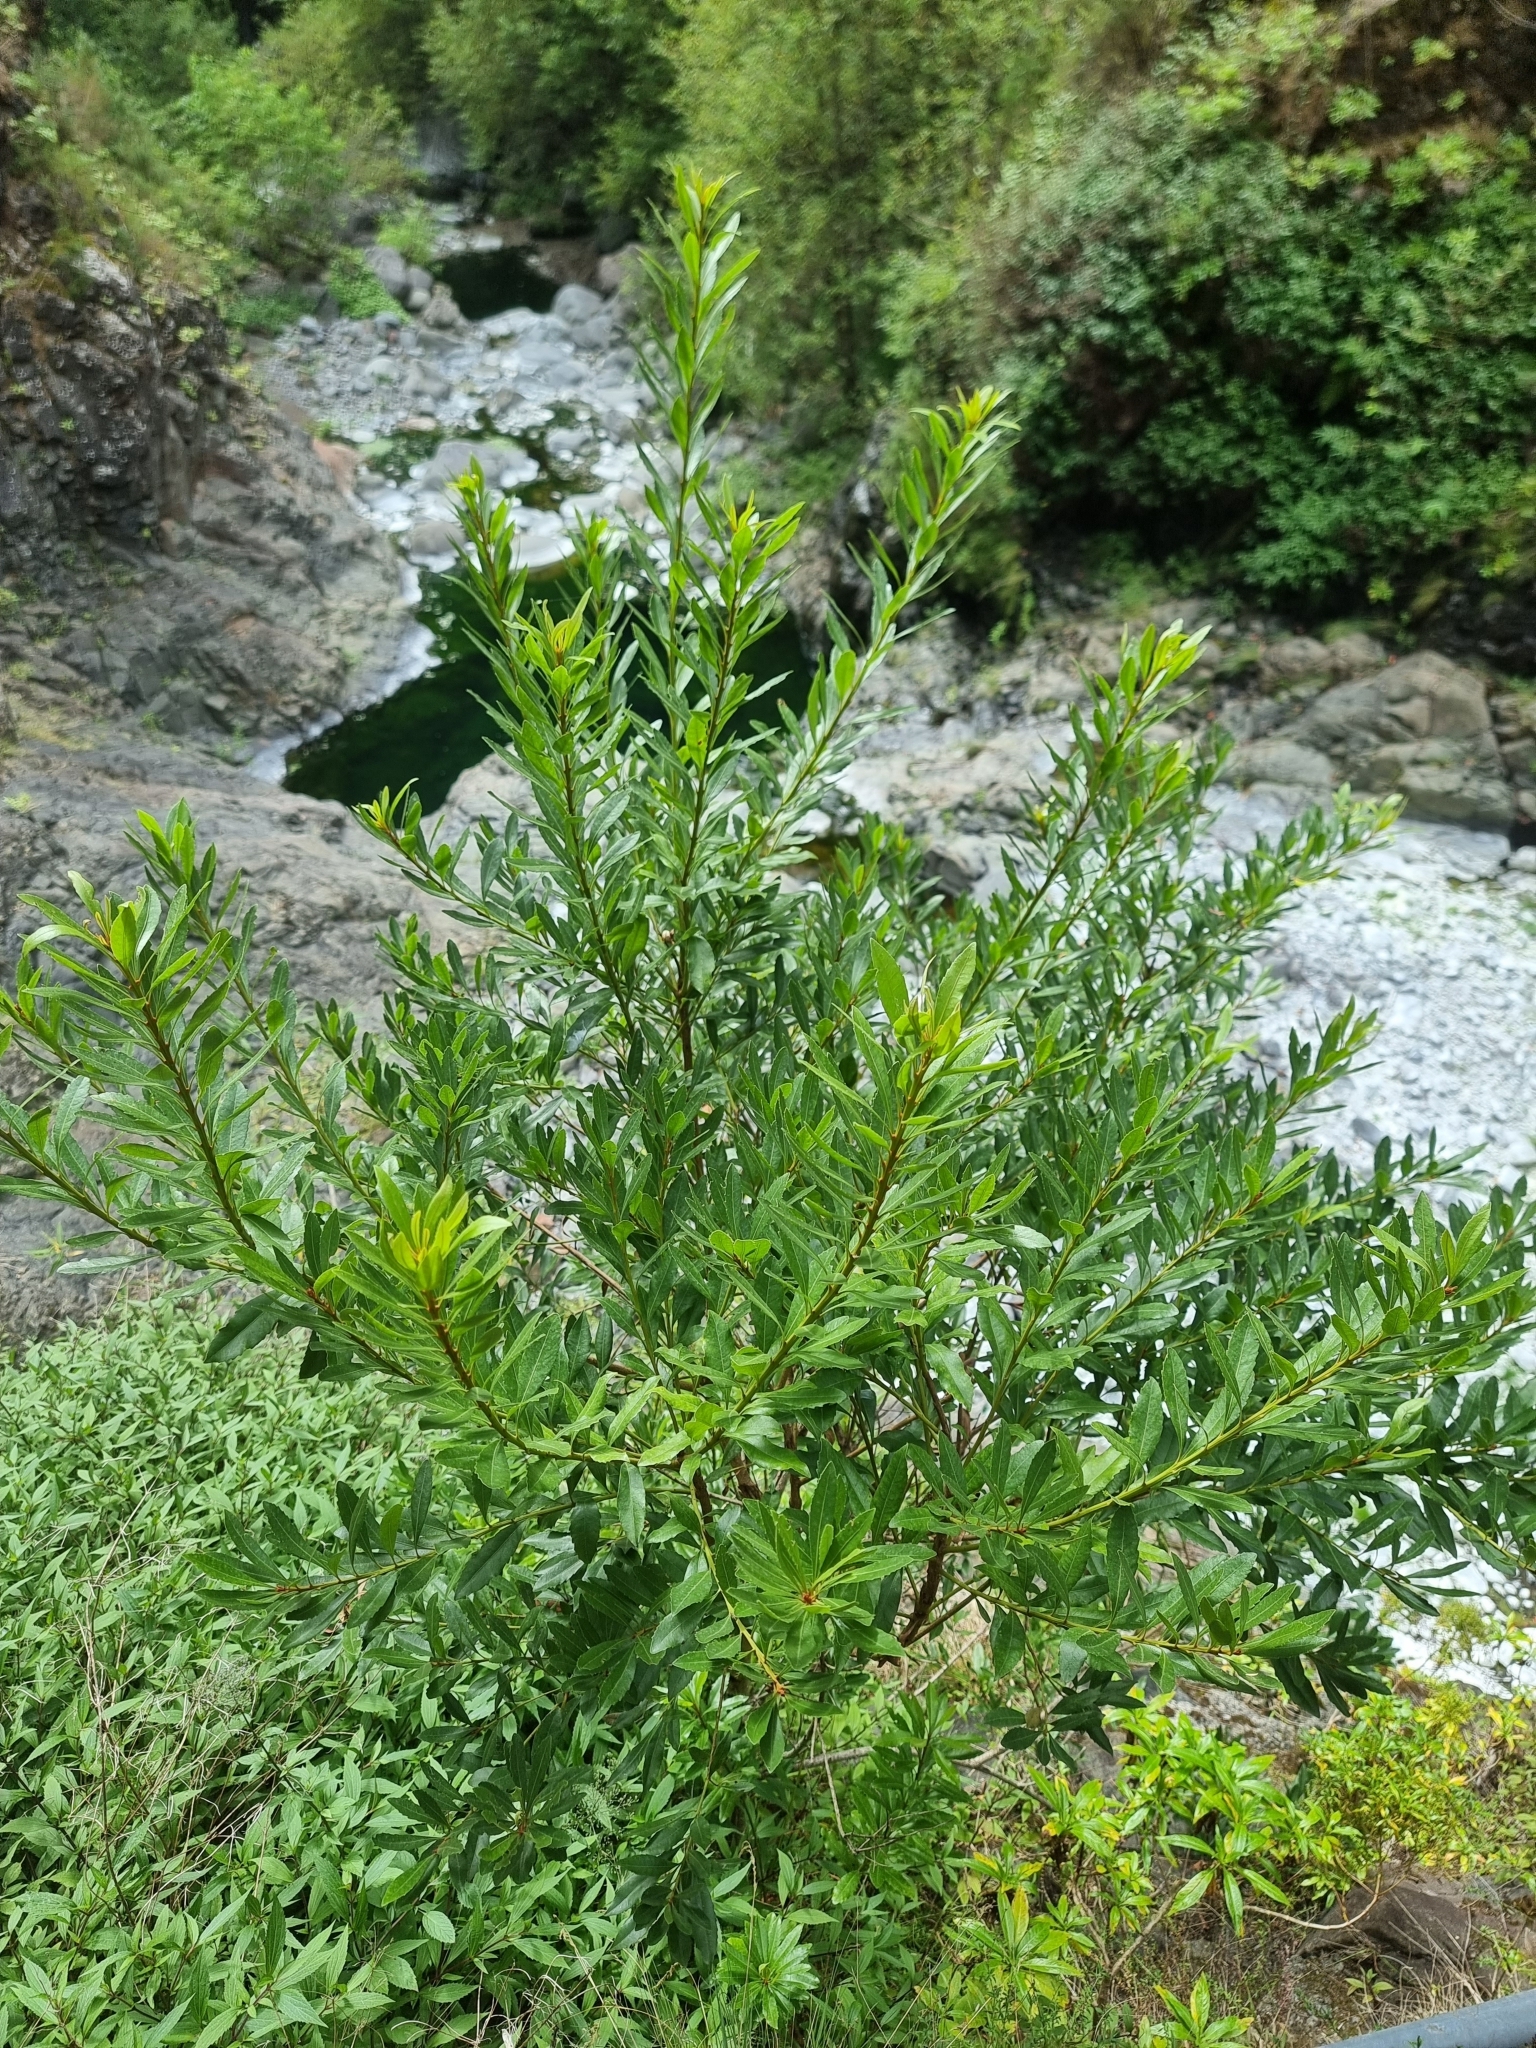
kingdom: Plantae
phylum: Tracheophyta
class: Magnoliopsida
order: Fagales
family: Myricaceae
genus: Morella
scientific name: Morella faya
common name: Firetree
